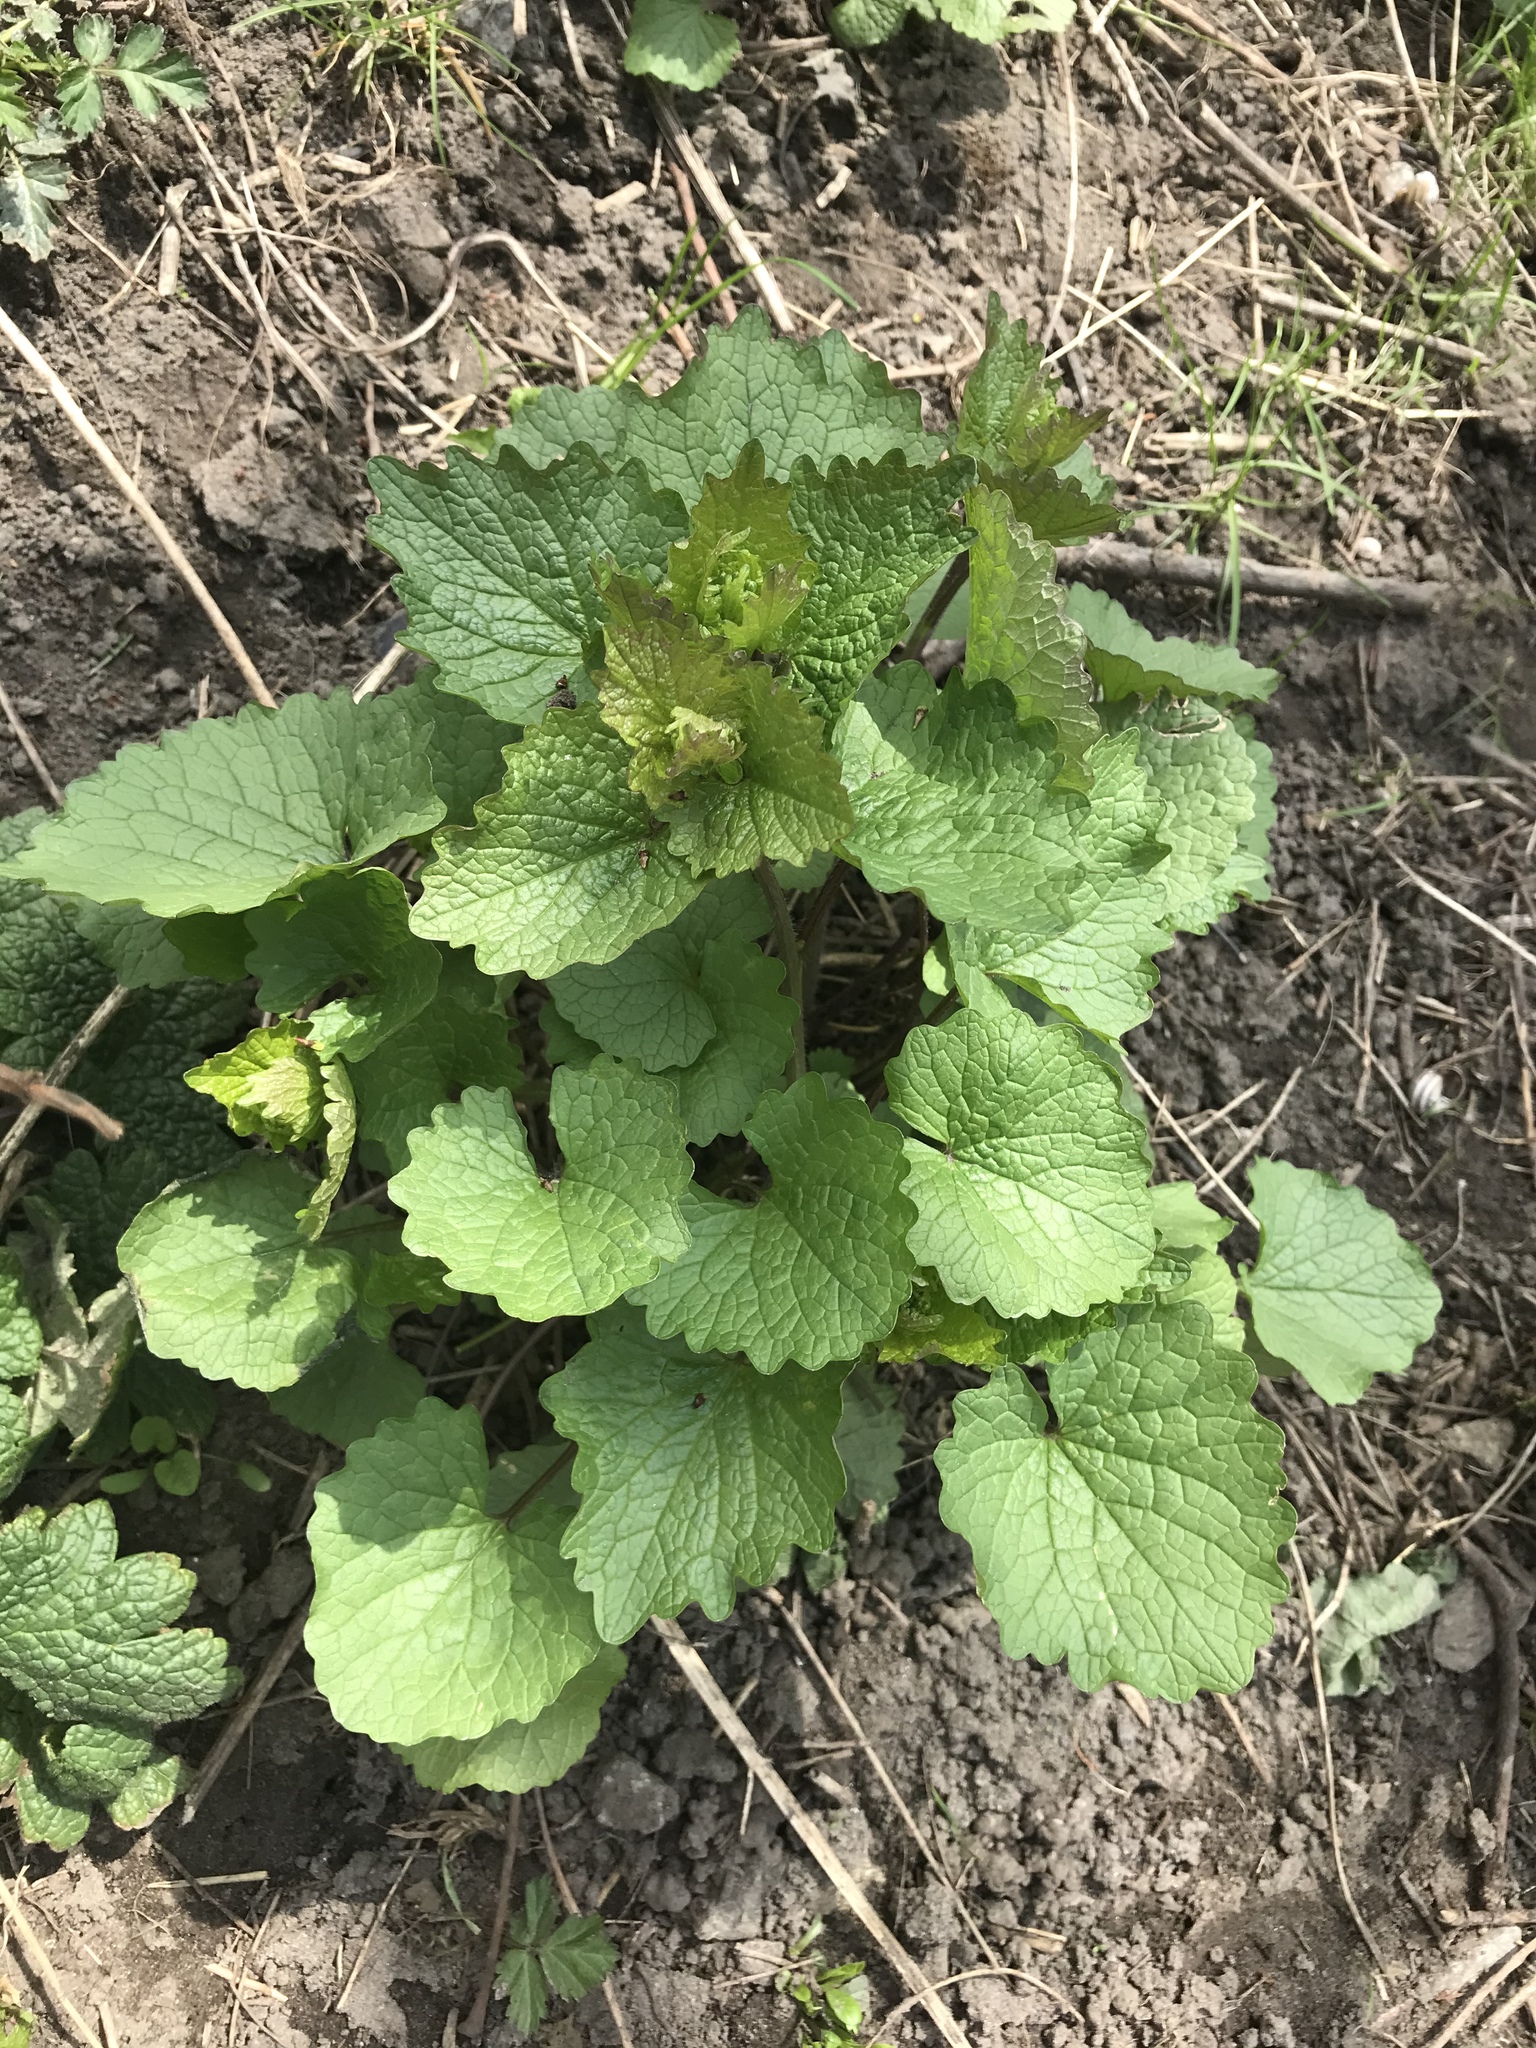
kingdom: Plantae
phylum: Tracheophyta
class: Magnoliopsida
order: Brassicales
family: Brassicaceae
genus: Alliaria
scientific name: Alliaria petiolata
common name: Garlic mustard
